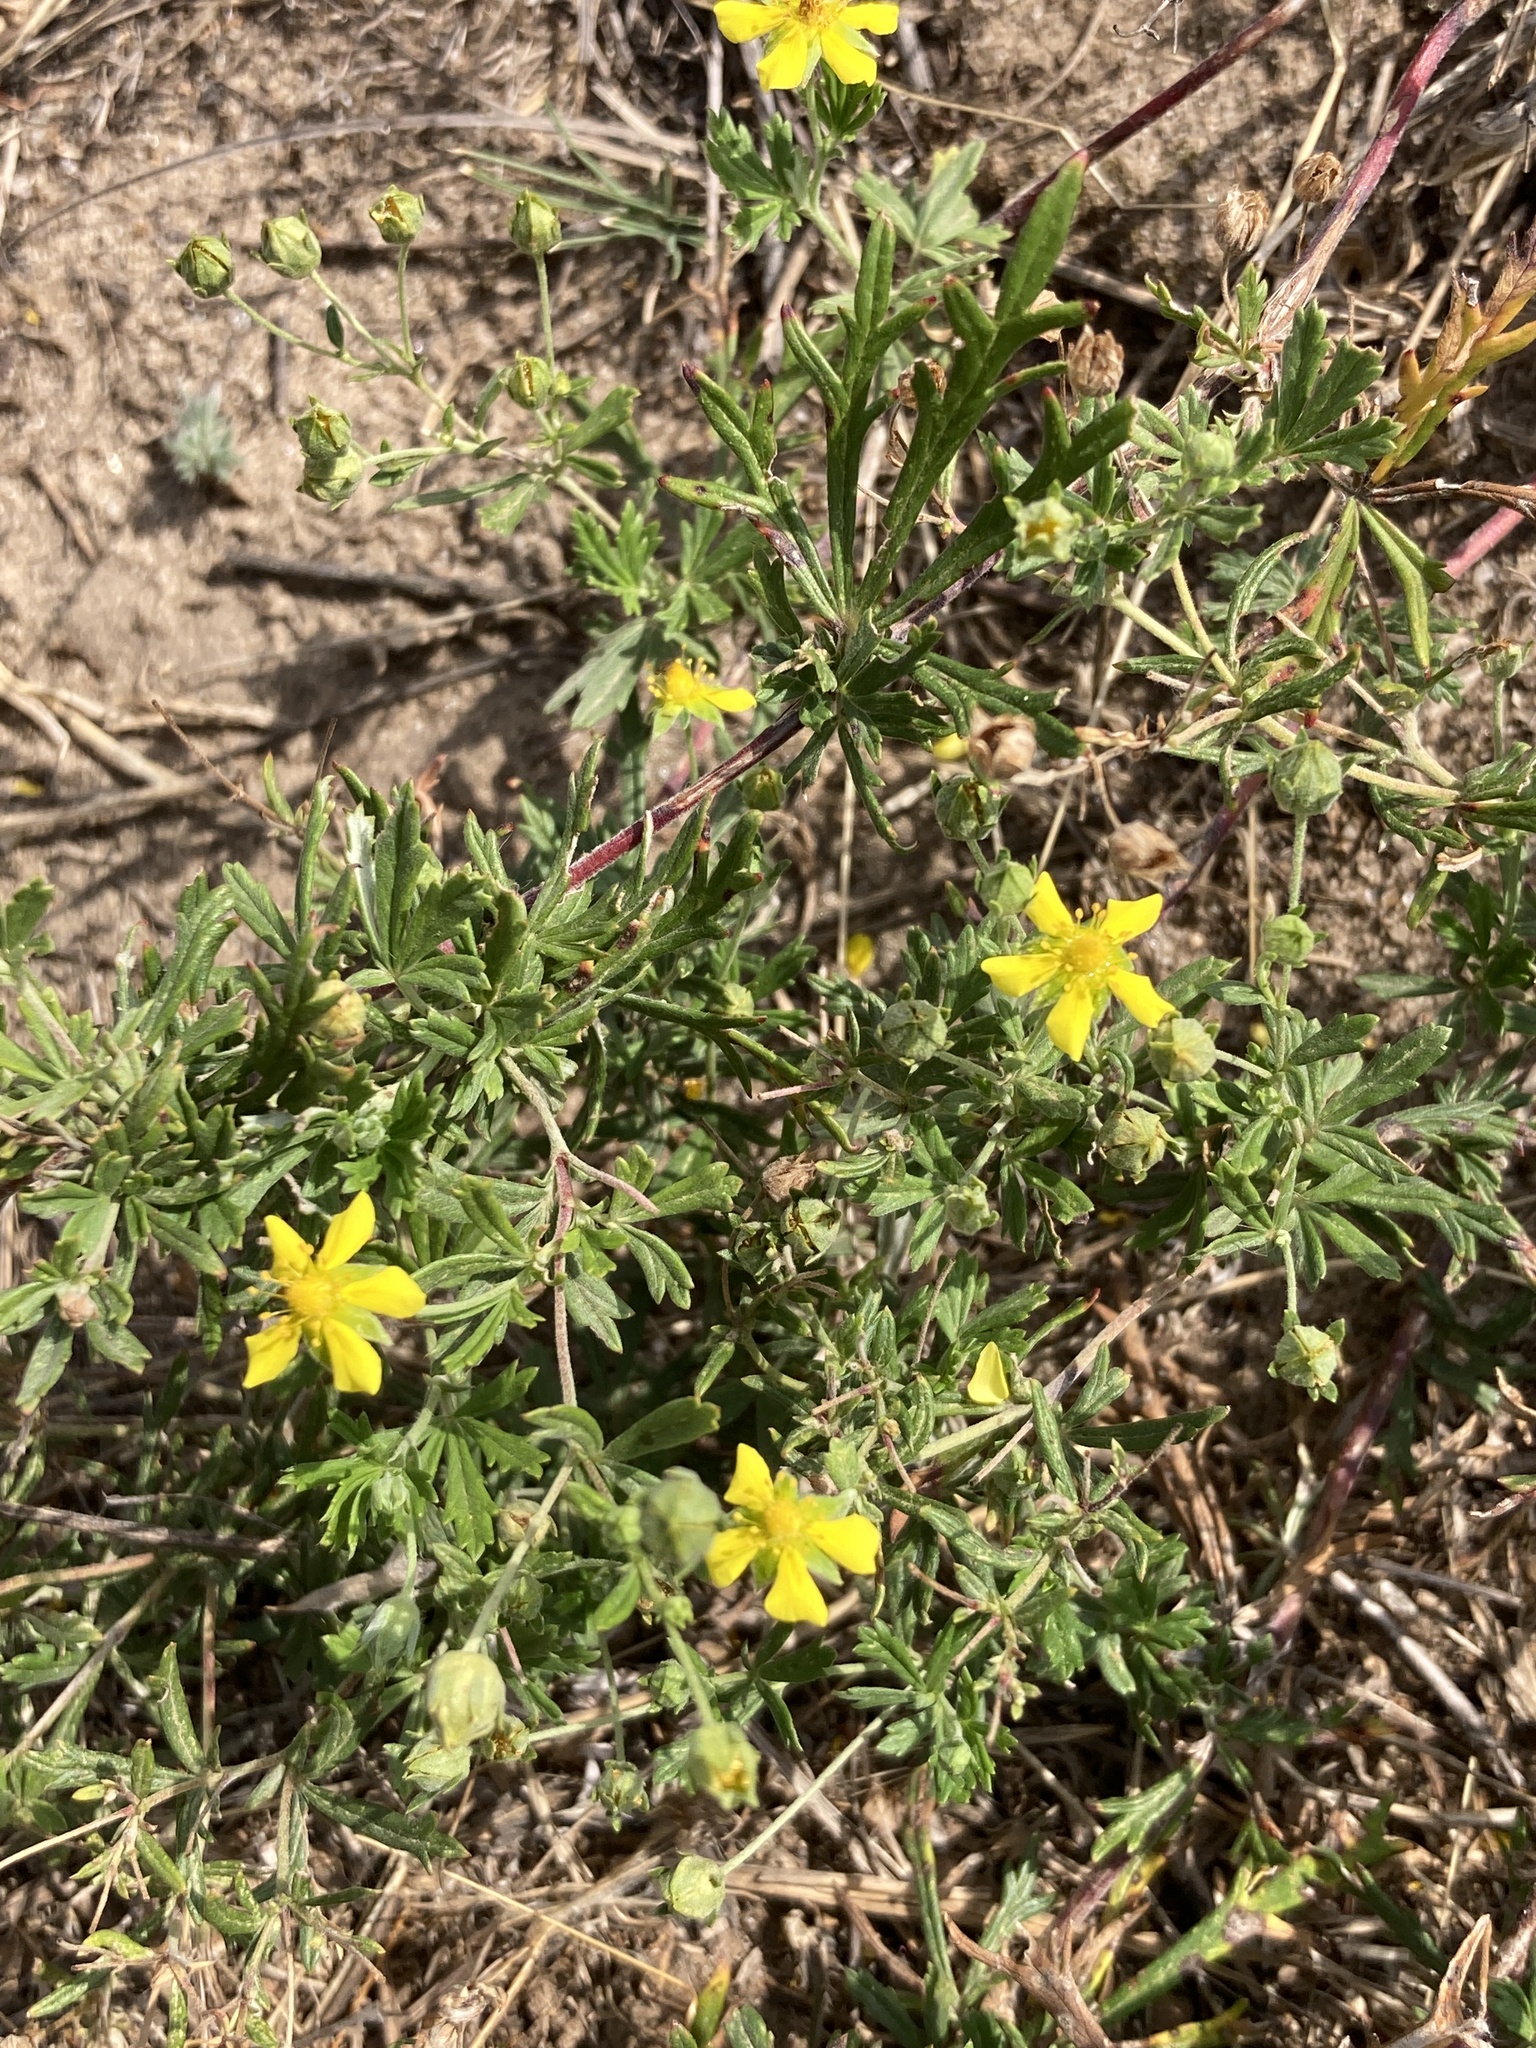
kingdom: Plantae
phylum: Tracheophyta
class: Magnoliopsida
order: Rosales
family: Rosaceae
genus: Potentilla
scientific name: Potentilla argentea
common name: Hoary cinquefoil
